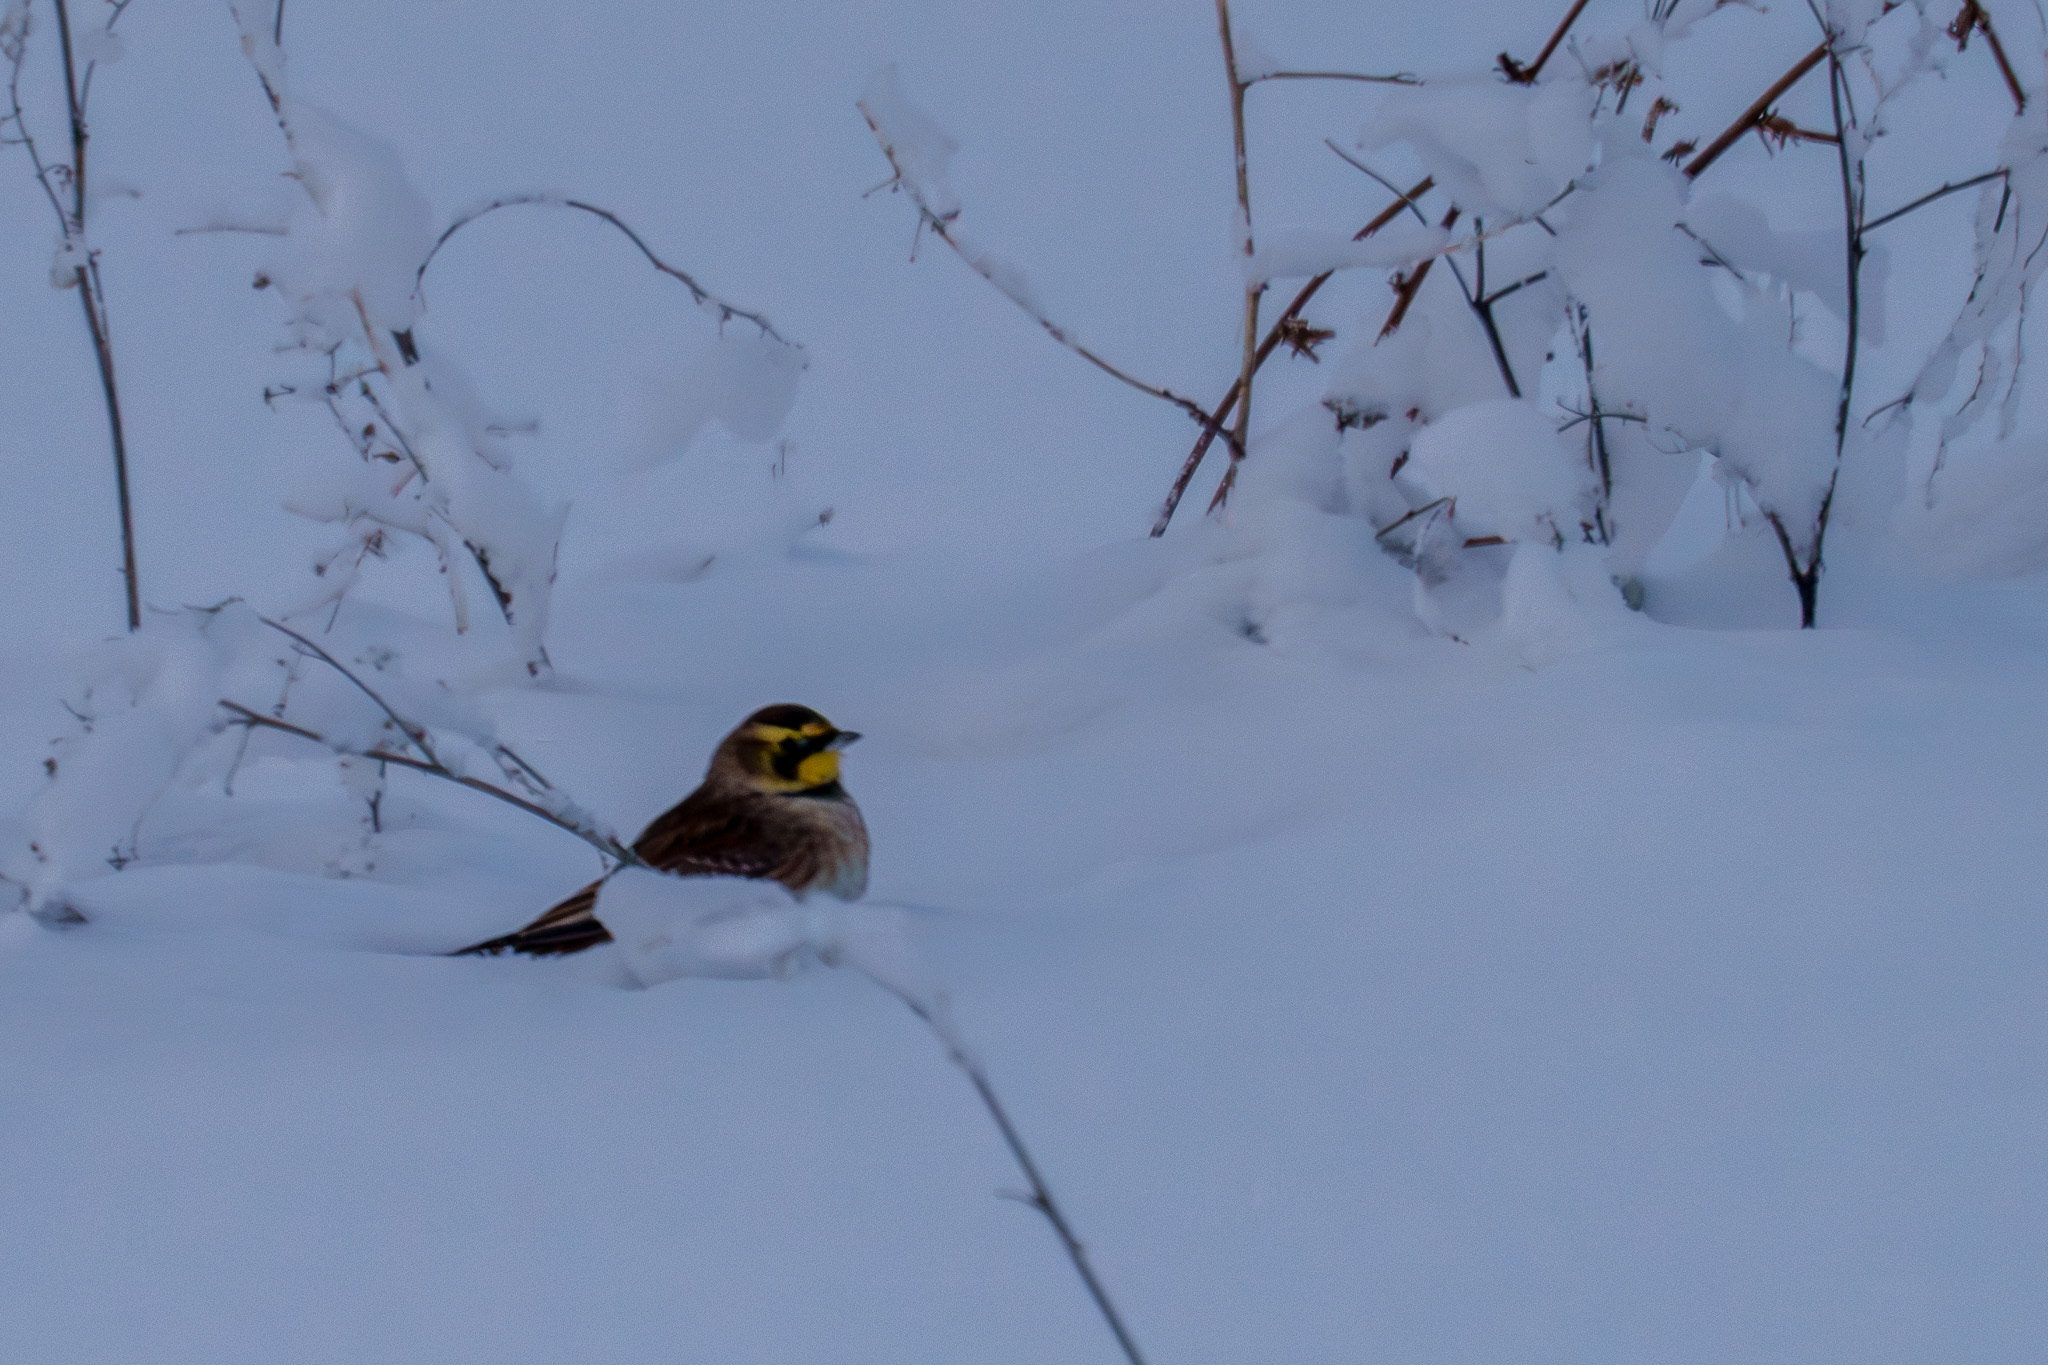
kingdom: Animalia
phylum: Chordata
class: Aves
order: Passeriformes
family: Alaudidae
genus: Eremophila
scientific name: Eremophila alpestris
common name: Horned lark
